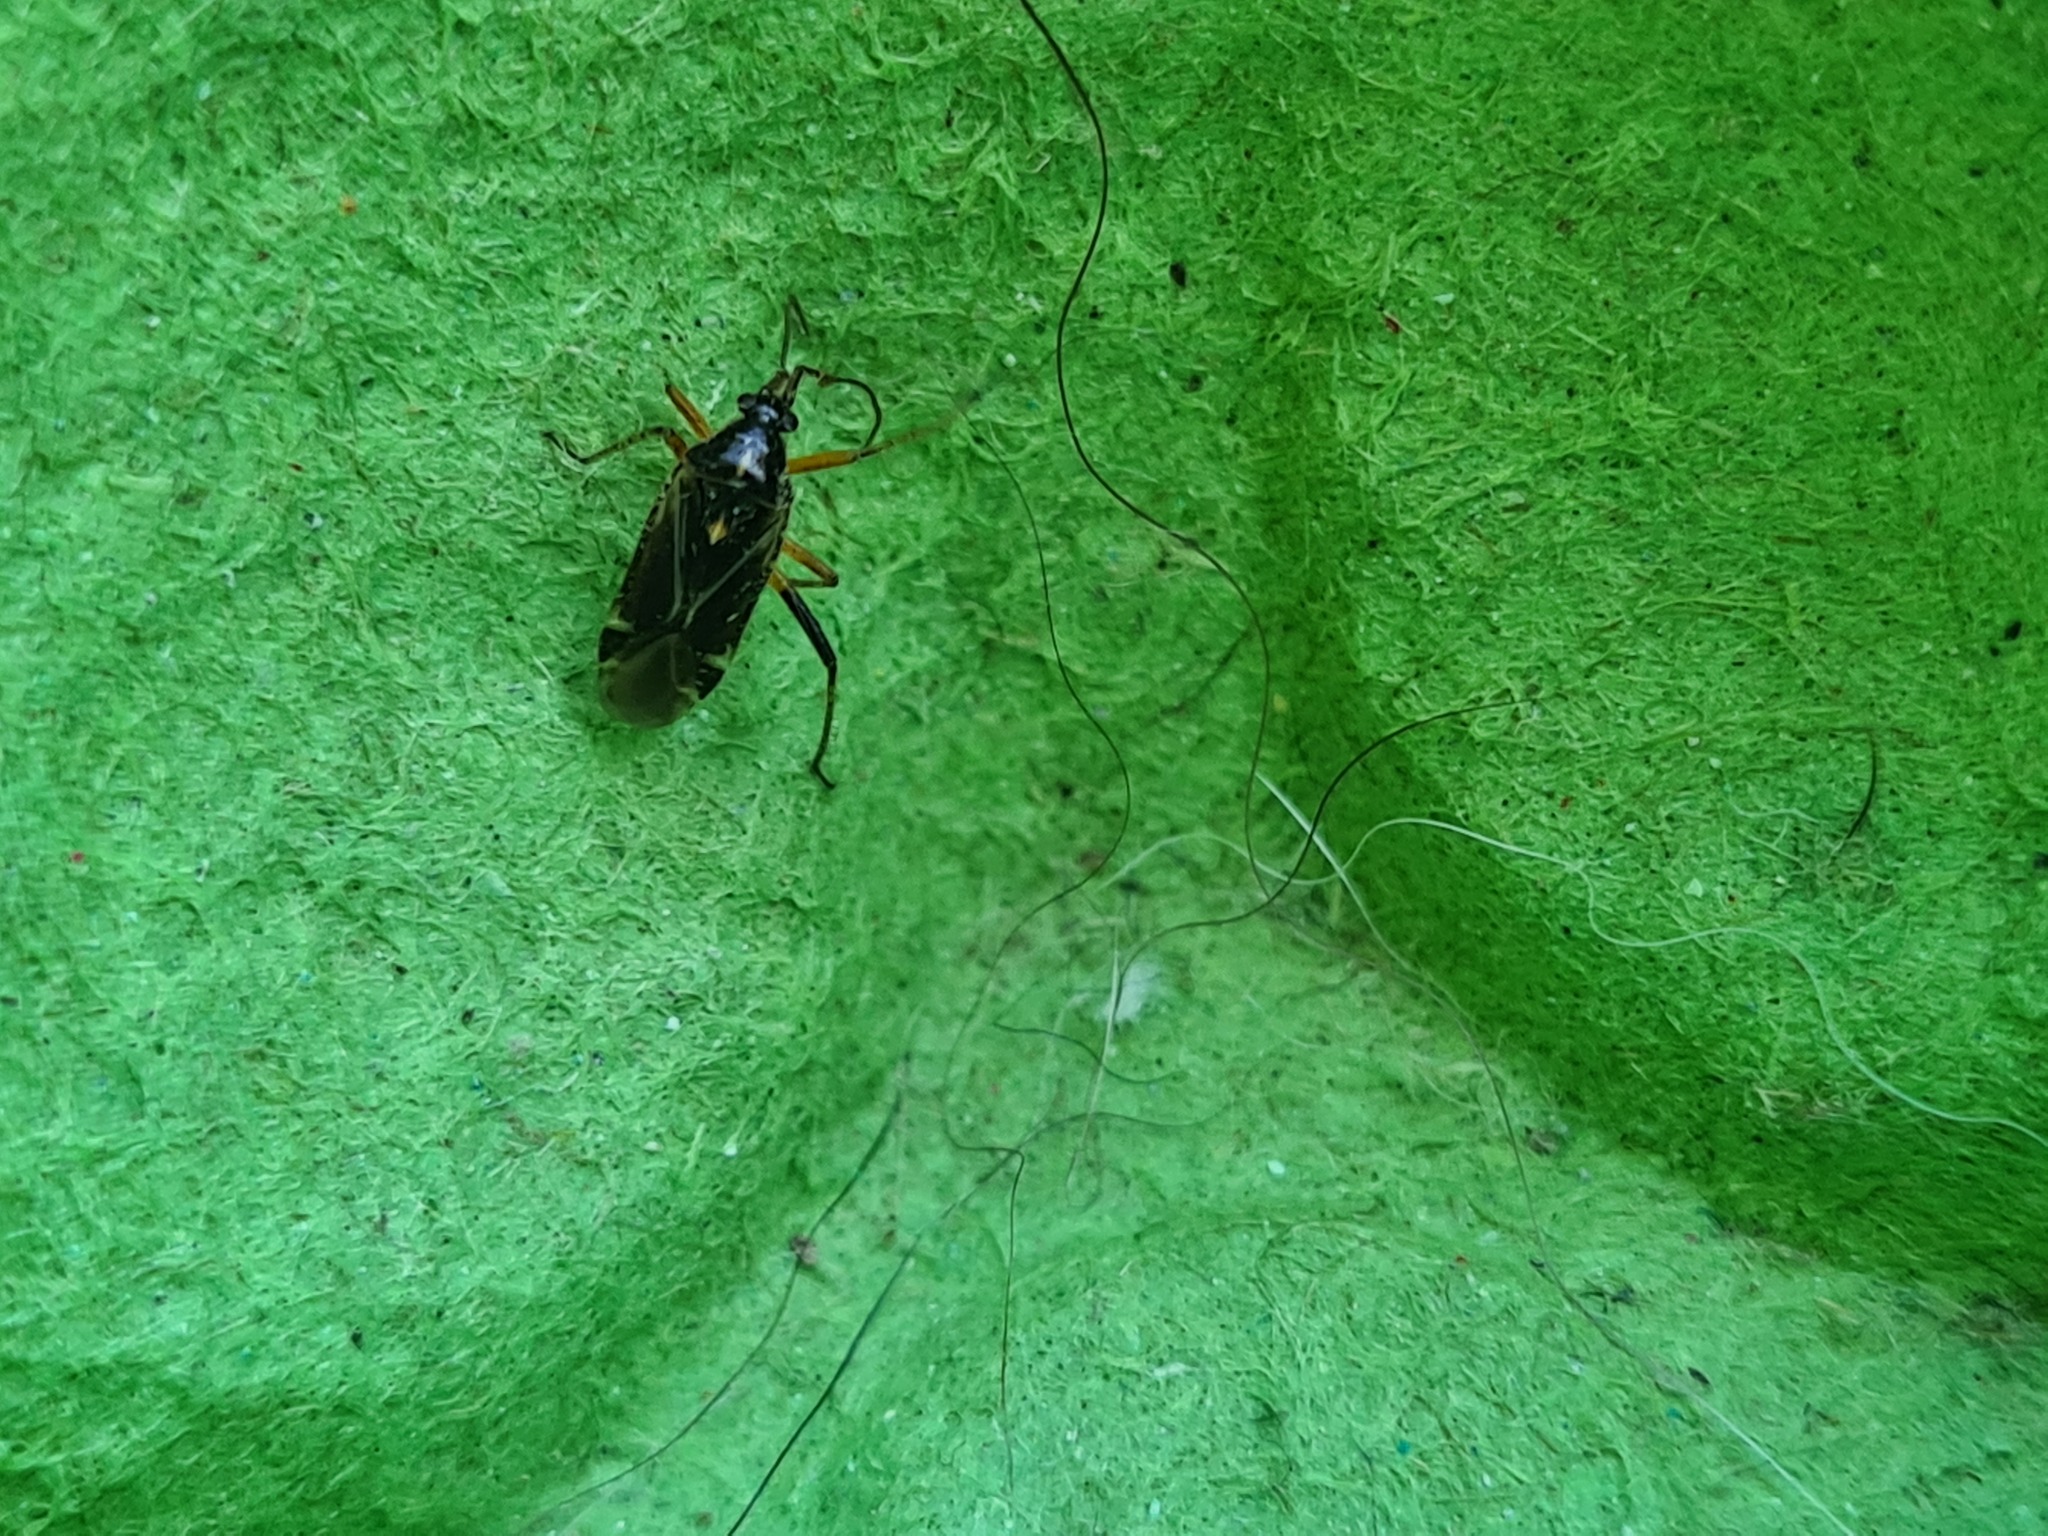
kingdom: Animalia
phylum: Arthropoda
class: Insecta
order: Hemiptera
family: Miridae
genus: Harpocera
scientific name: Harpocera thoracica
